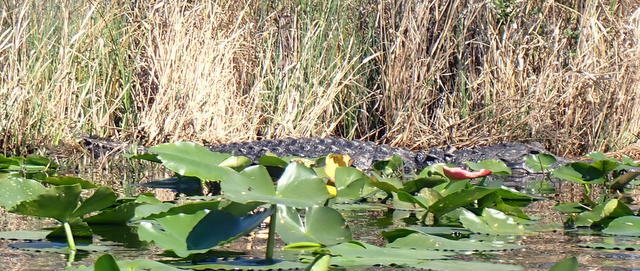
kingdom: Animalia
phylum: Chordata
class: Crocodylia
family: Alligatoridae
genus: Alligator
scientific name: Alligator mississippiensis
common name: American alligator
